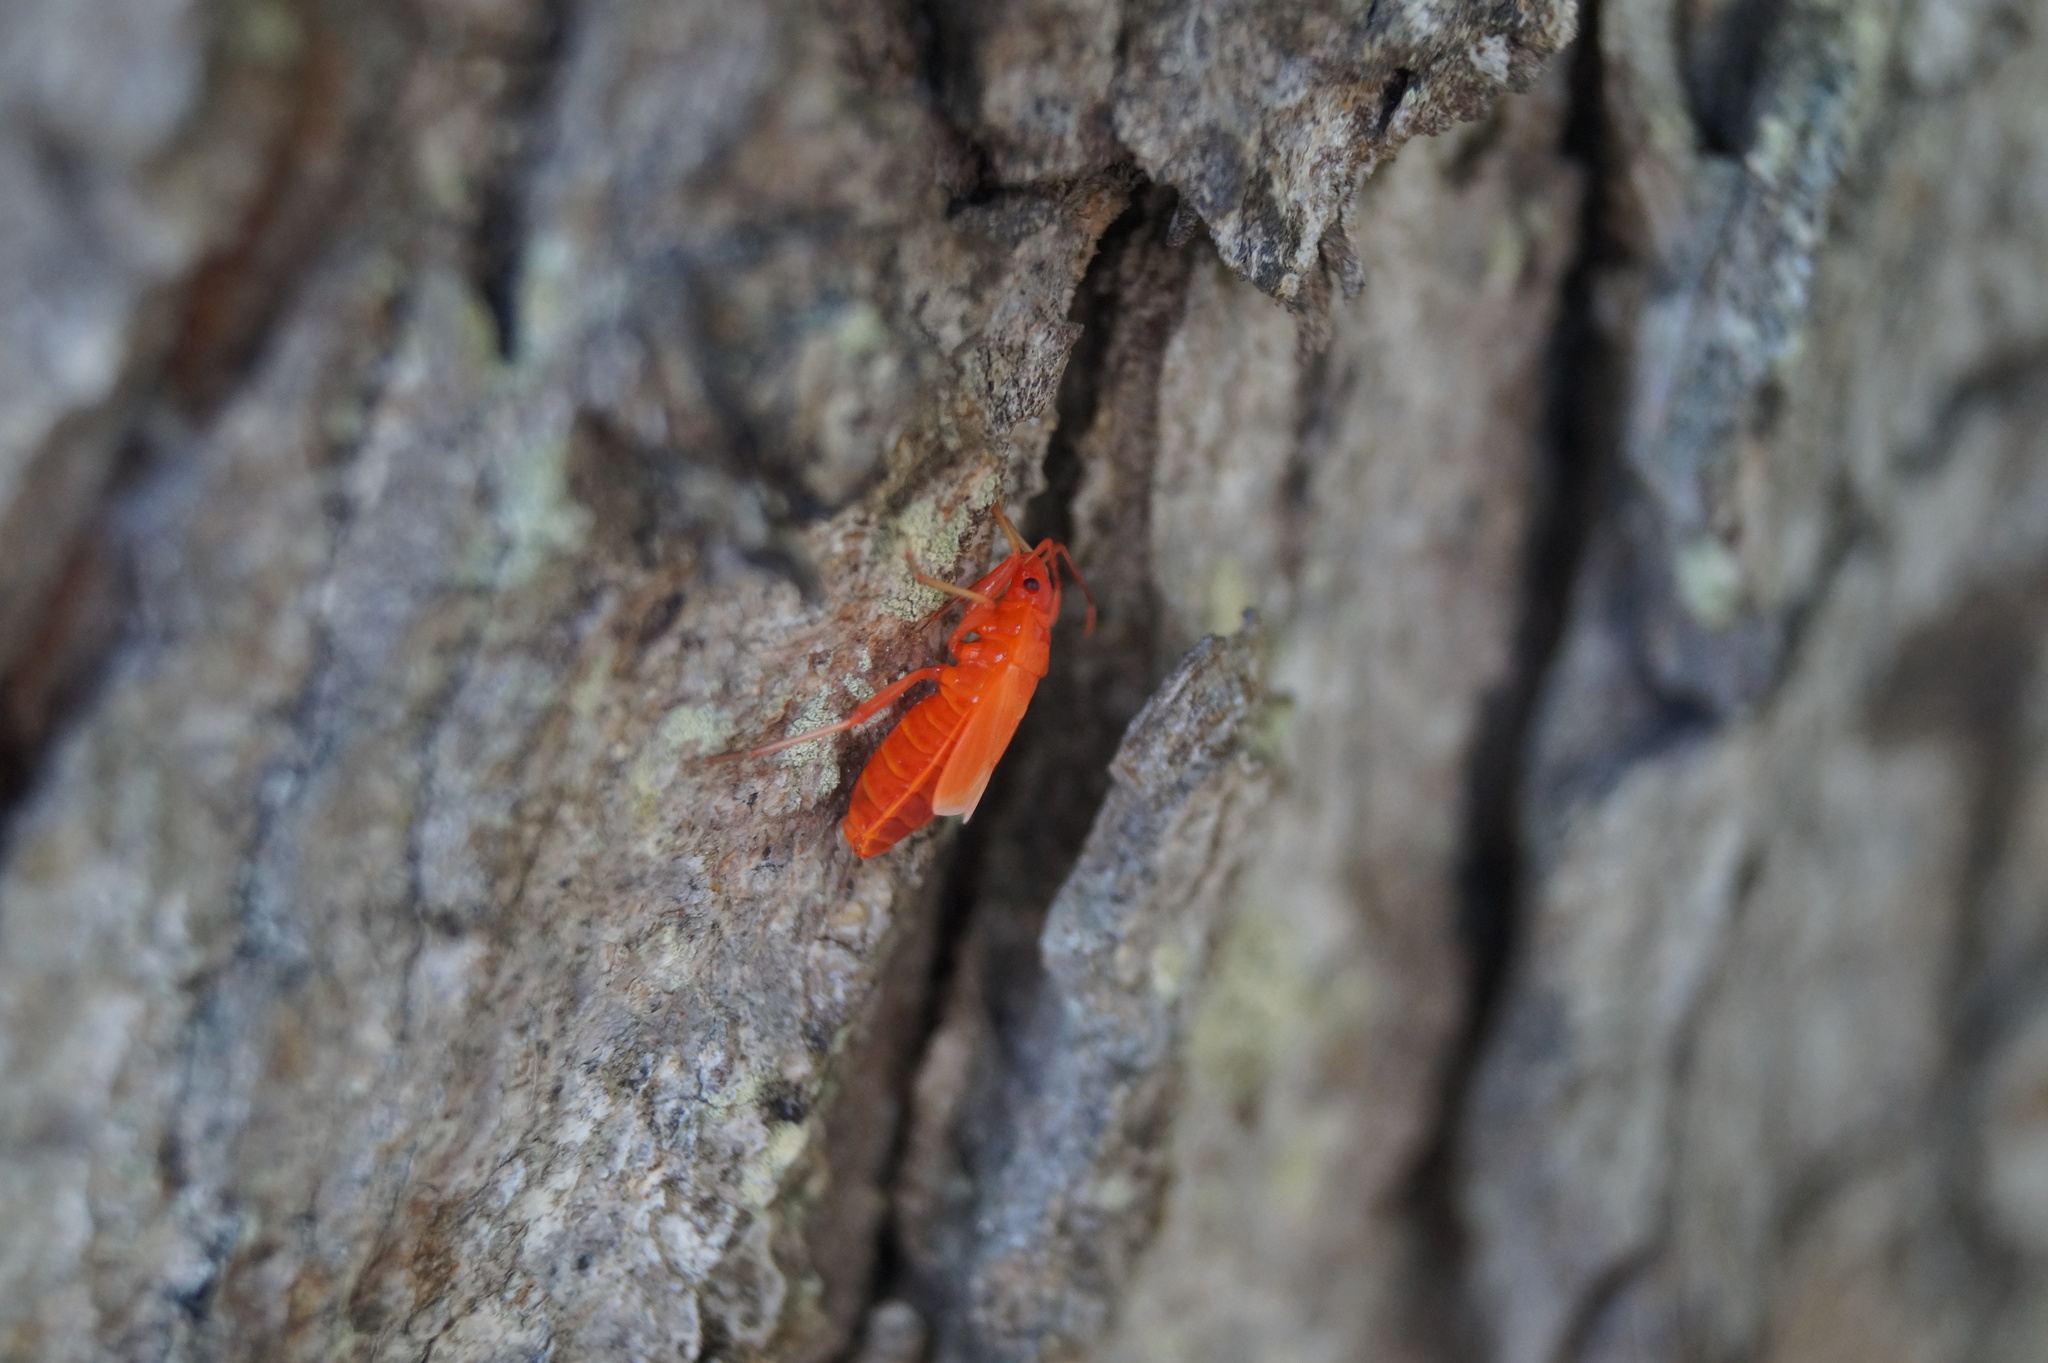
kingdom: Animalia
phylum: Arthropoda
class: Insecta
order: Hemiptera
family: Pyrrhocoridae
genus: Pyrrhocoris
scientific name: Pyrrhocoris apterus
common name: Firebug
